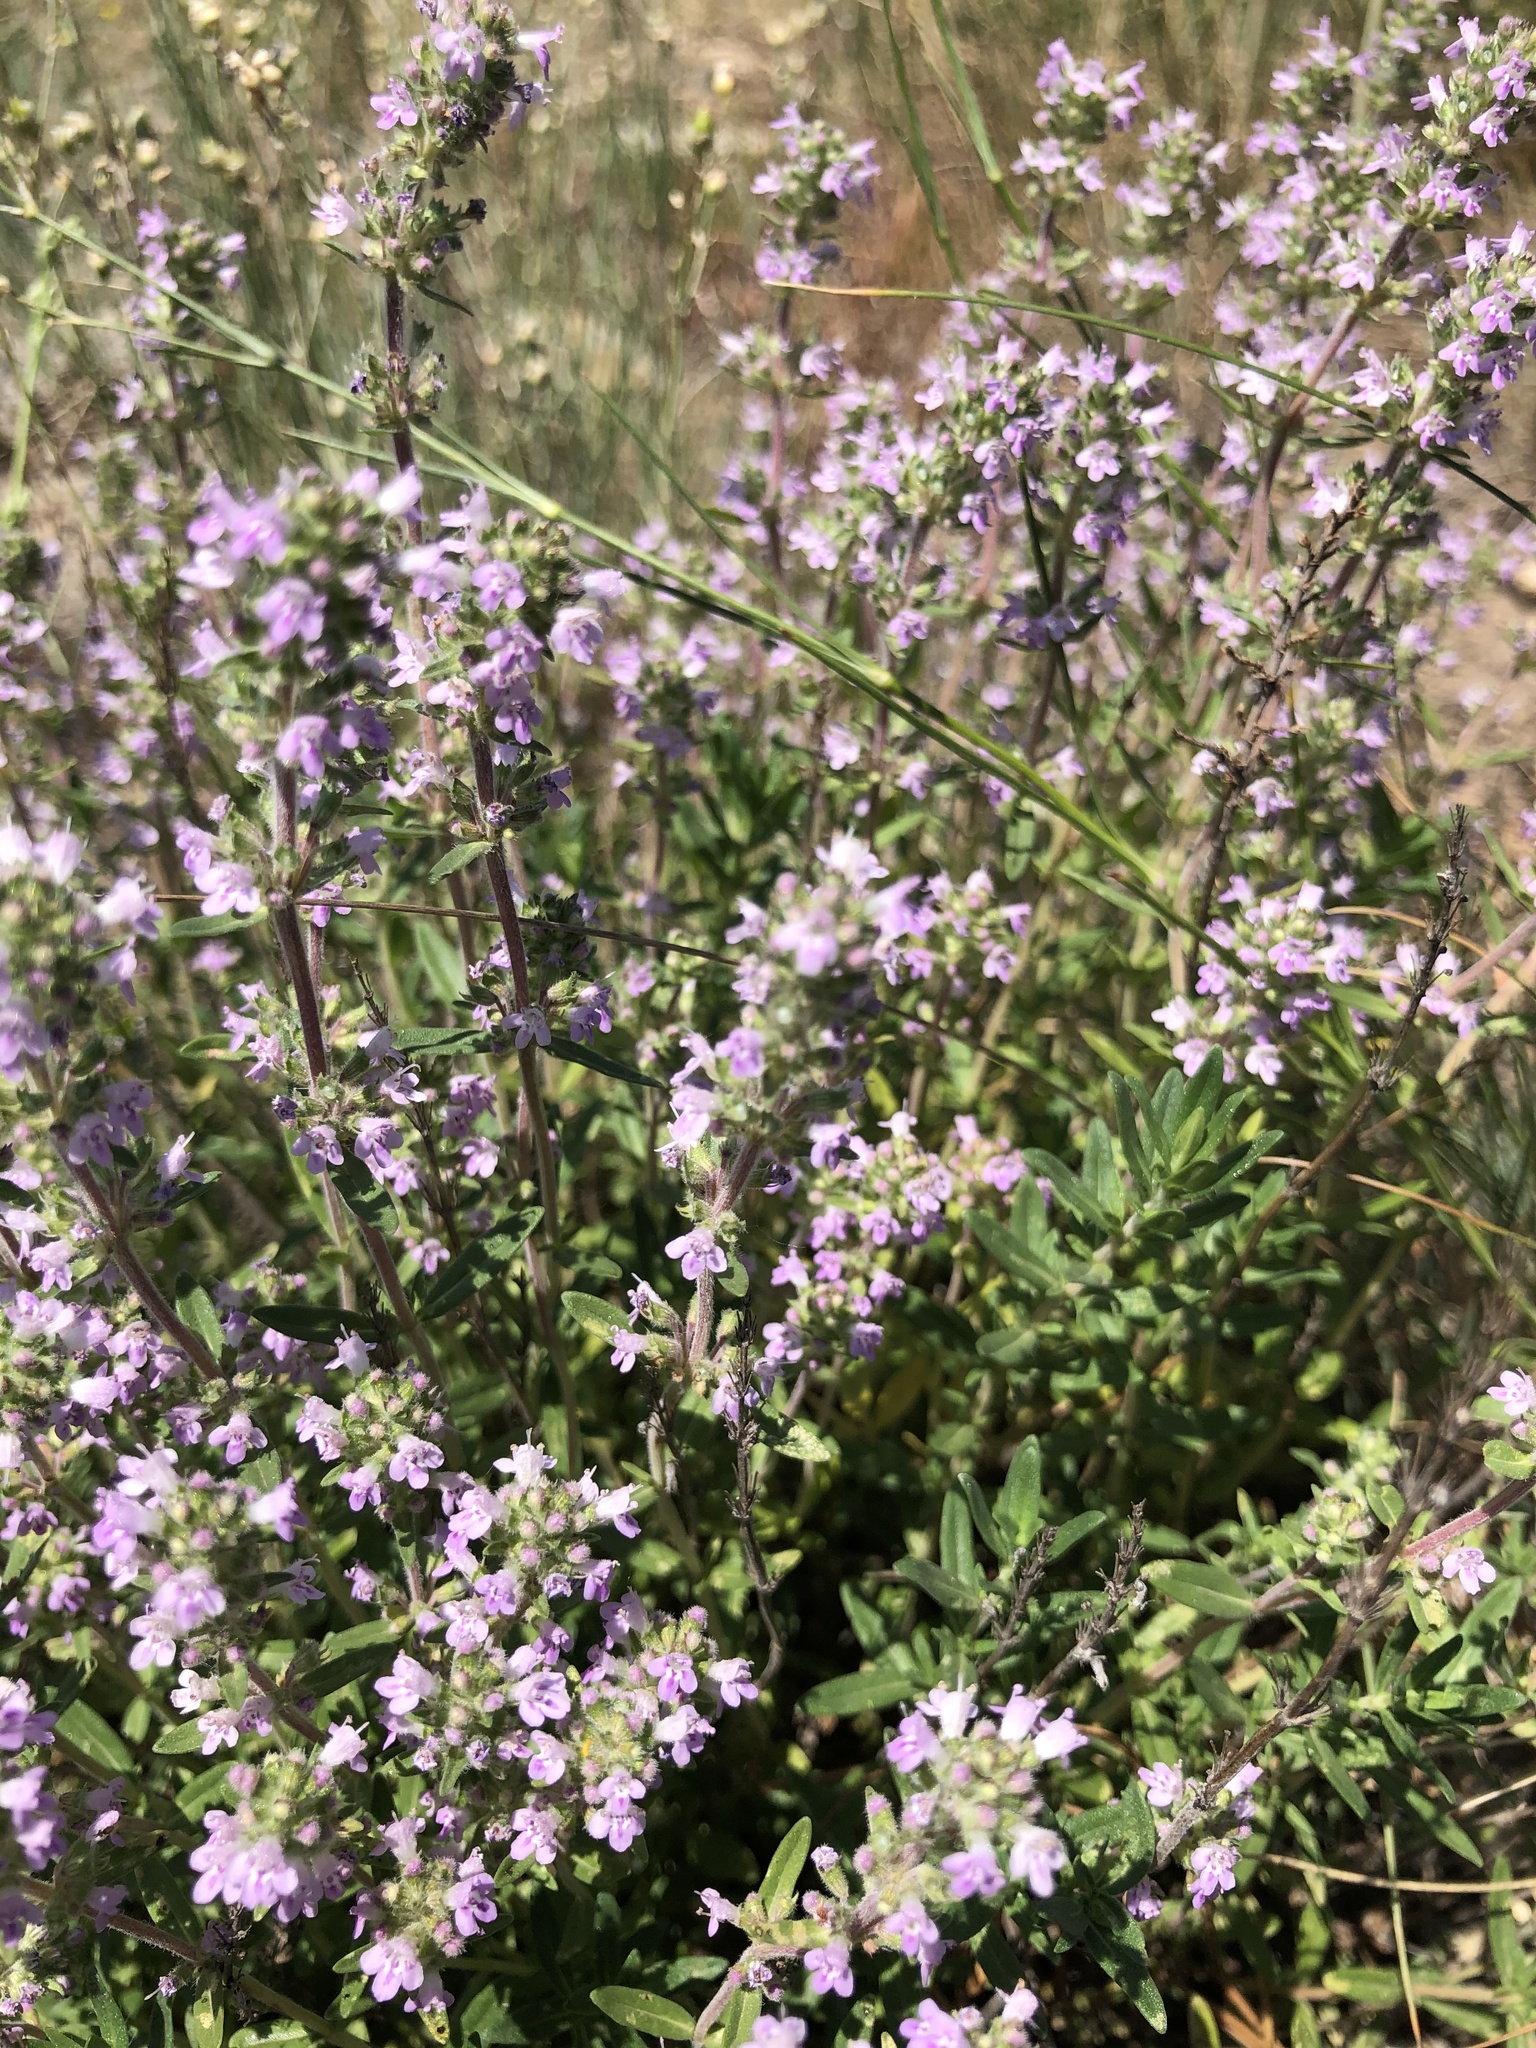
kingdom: Plantae
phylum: Tracheophyta
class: Magnoliopsida
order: Lamiales
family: Lamiaceae
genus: Thymus
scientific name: Thymus pannonicus
